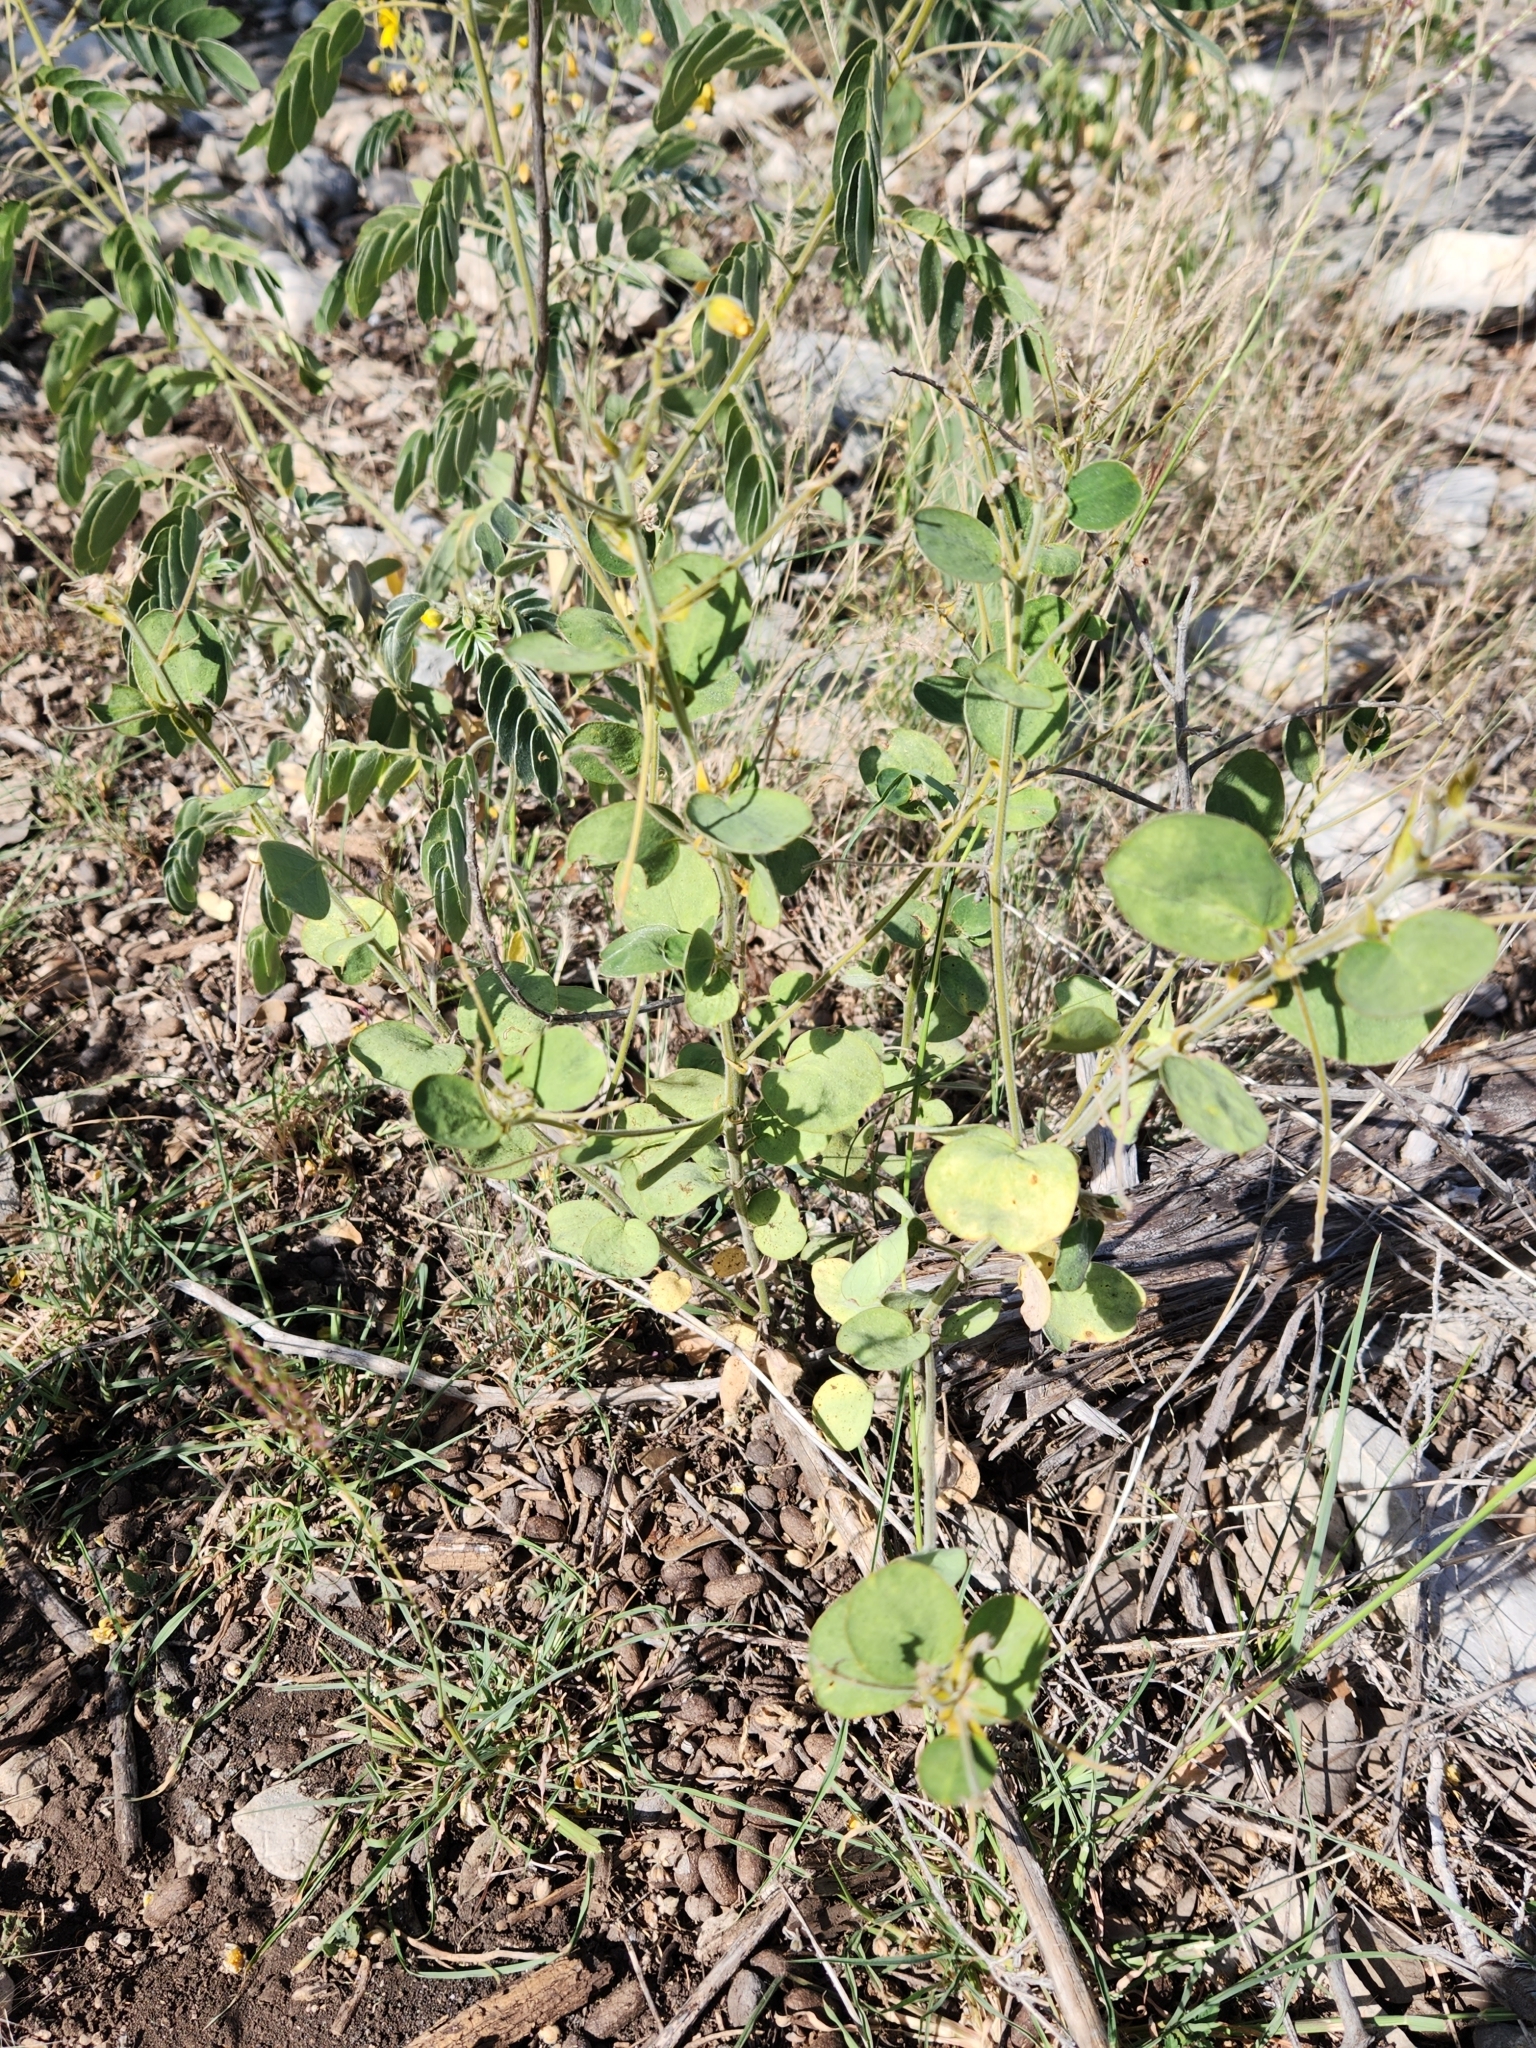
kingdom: Plantae
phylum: Tracheophyta
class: Magnoliopsida
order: Fabales
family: Fabaceae
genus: Senna
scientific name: Senna lindheimeriana
